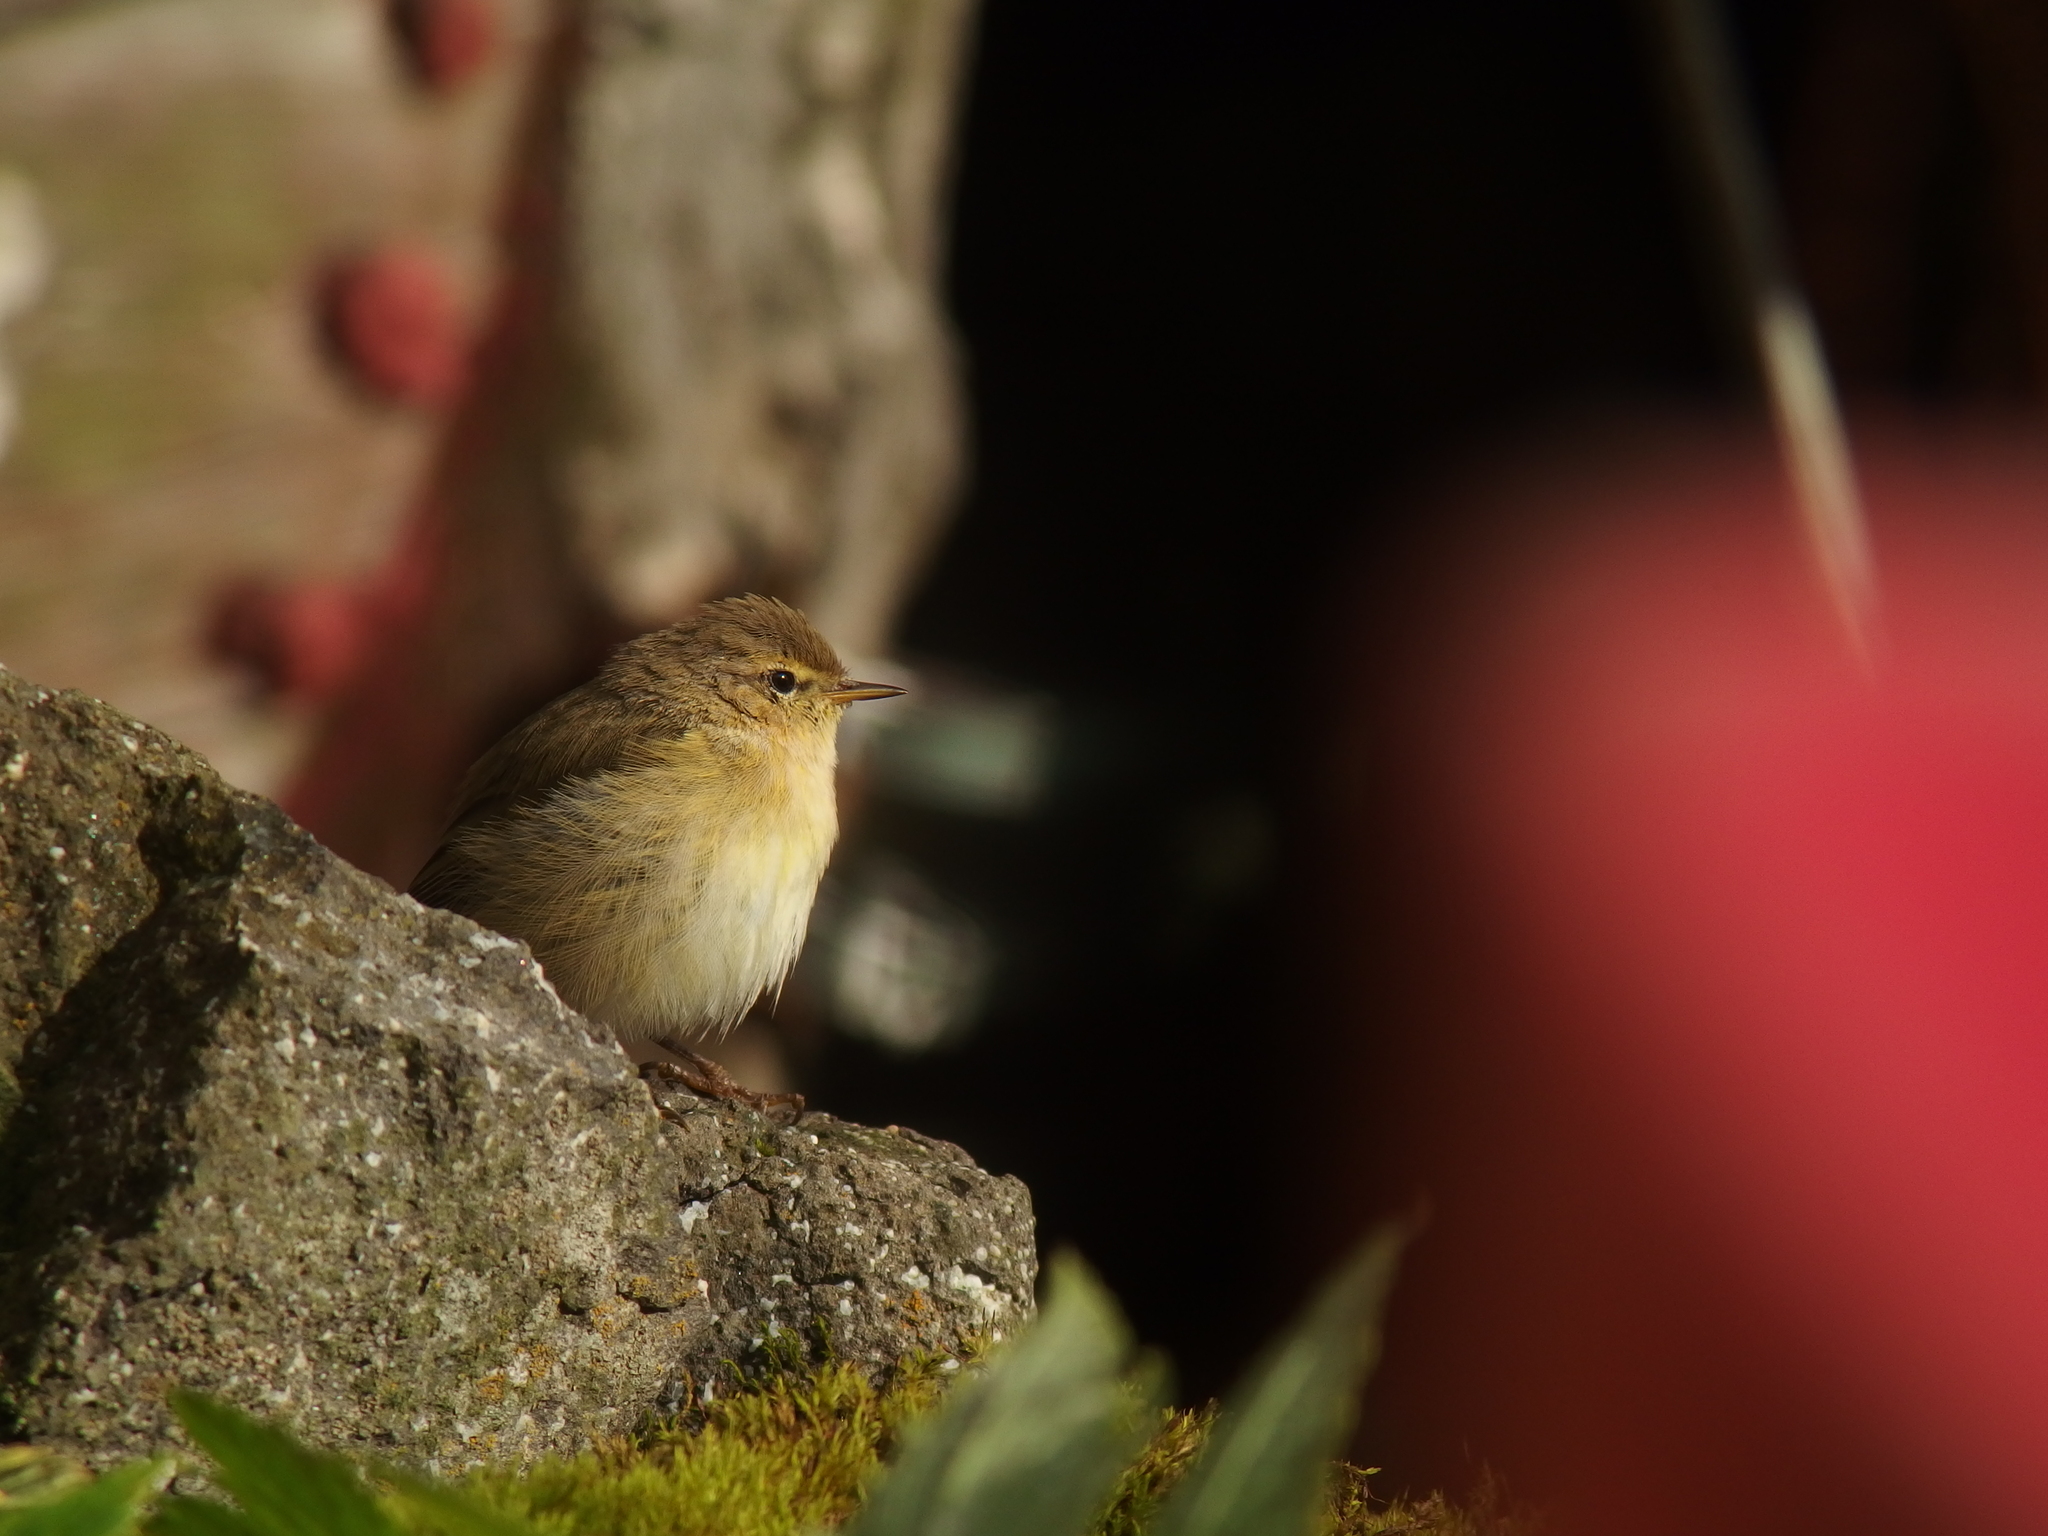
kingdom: Animalia
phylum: Chordata
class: Aves
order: Passeriformes
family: Phylloscopidae
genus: Phylloscopus
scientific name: Phylloscopus collybita
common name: Common chiffchaff
